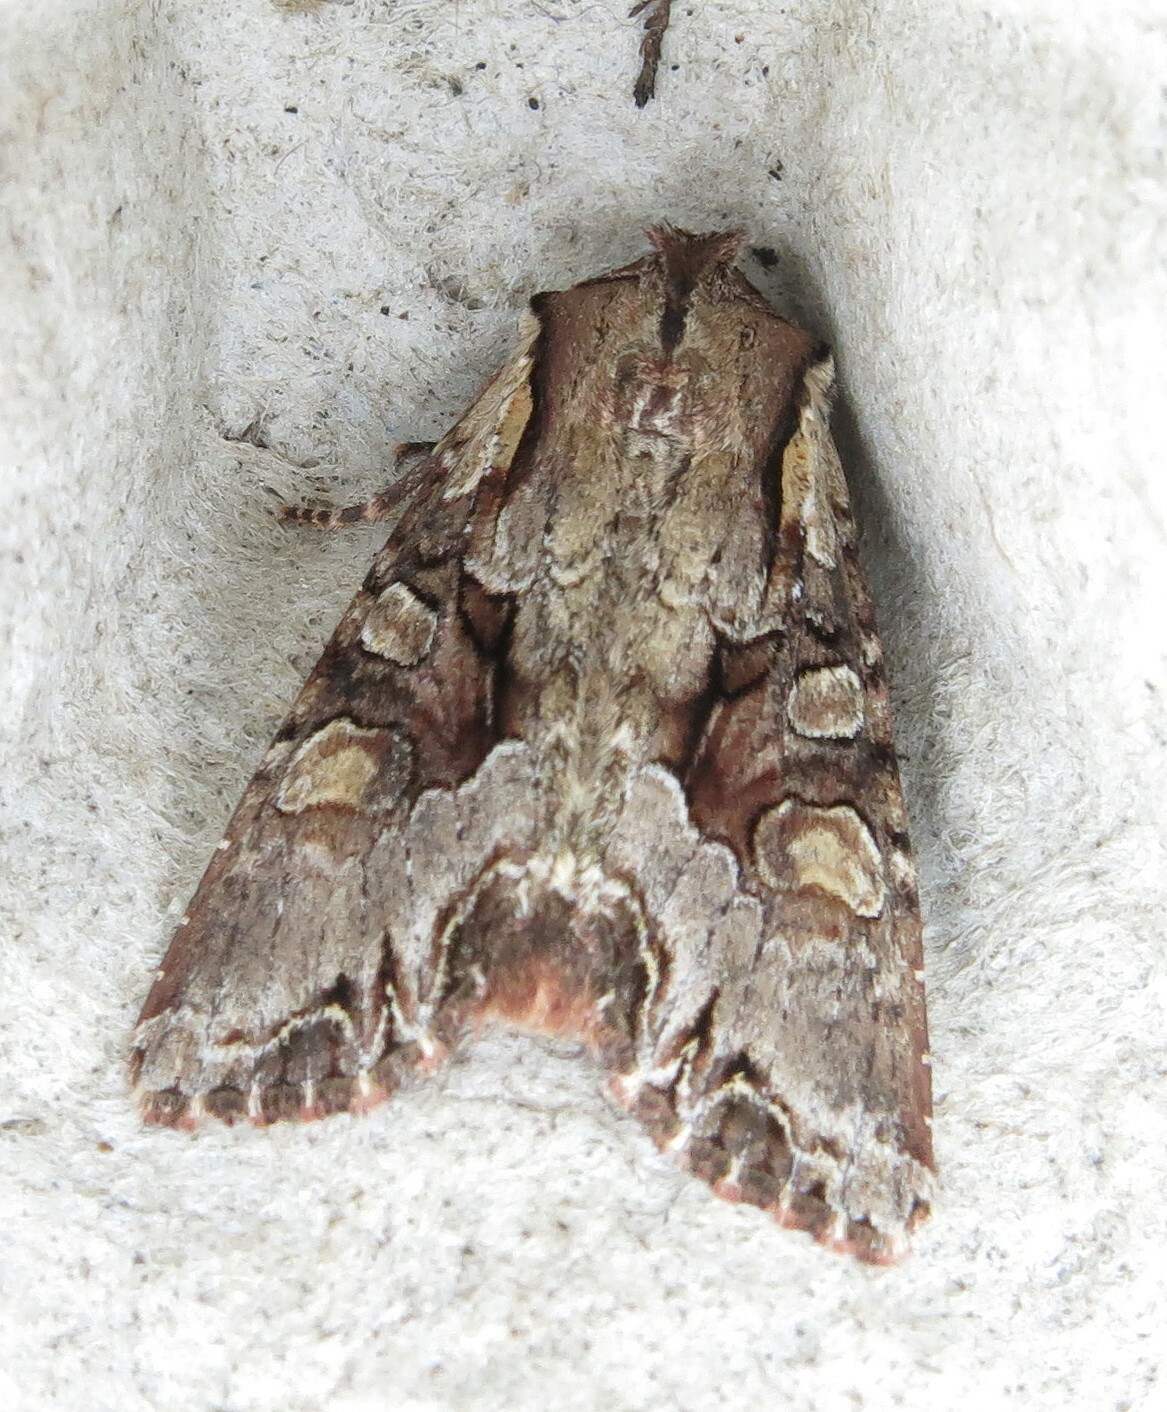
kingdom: Animalia
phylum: Arthropoda
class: Insecta
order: Lepidoptera
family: Noctuidae
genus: Lacanobia
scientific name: Lacanobia w-latinum
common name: Light brocade
